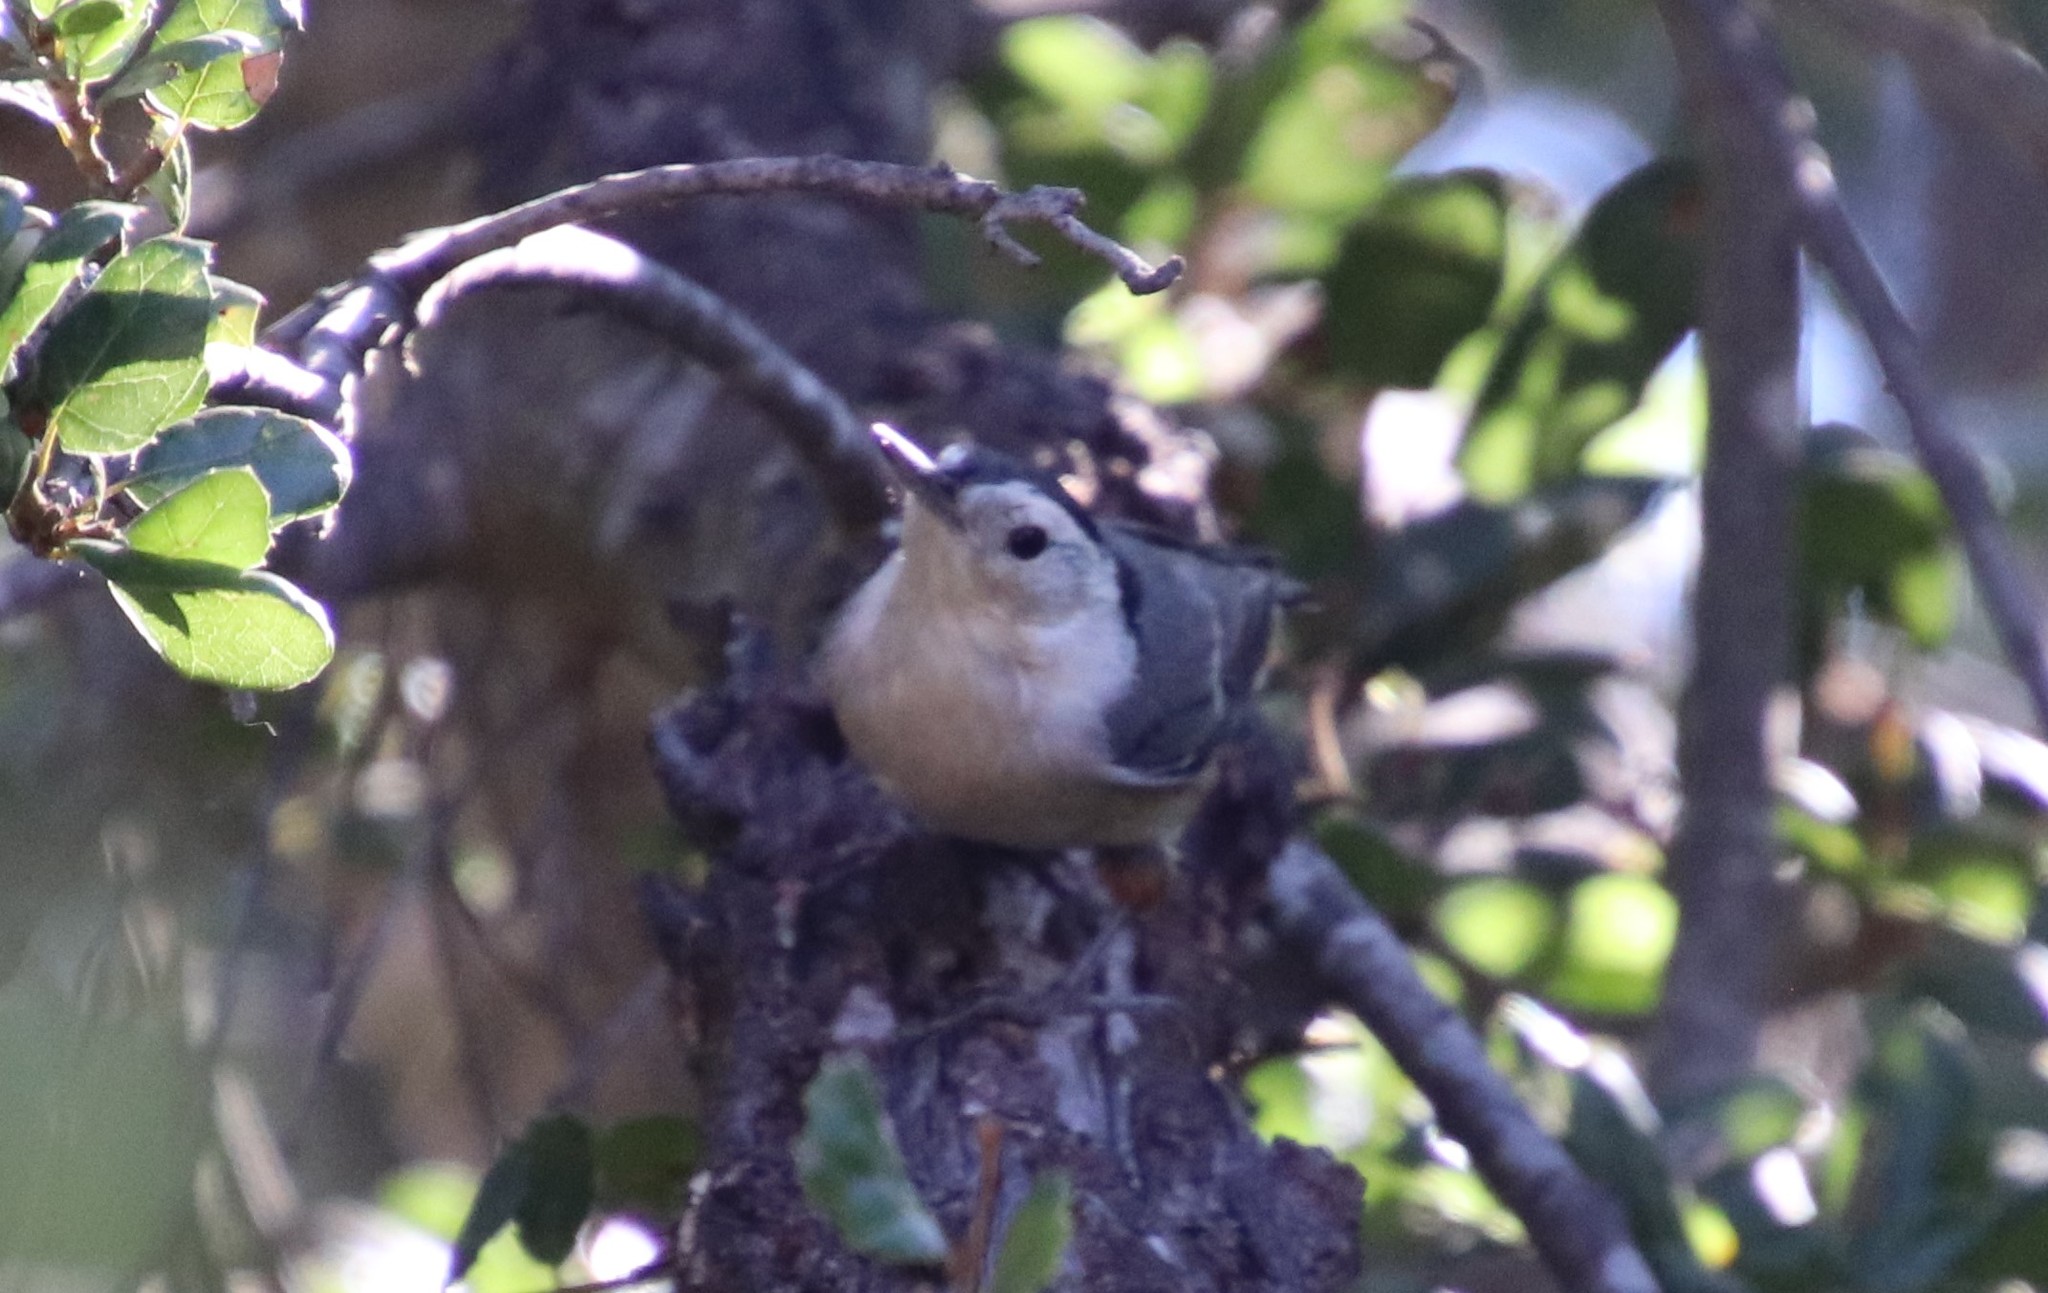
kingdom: Animalia
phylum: Chordata
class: Aves
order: Passeriformes
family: Sittidae
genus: Sitta
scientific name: Sitta carolinensis
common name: White-breasted nuthatch
